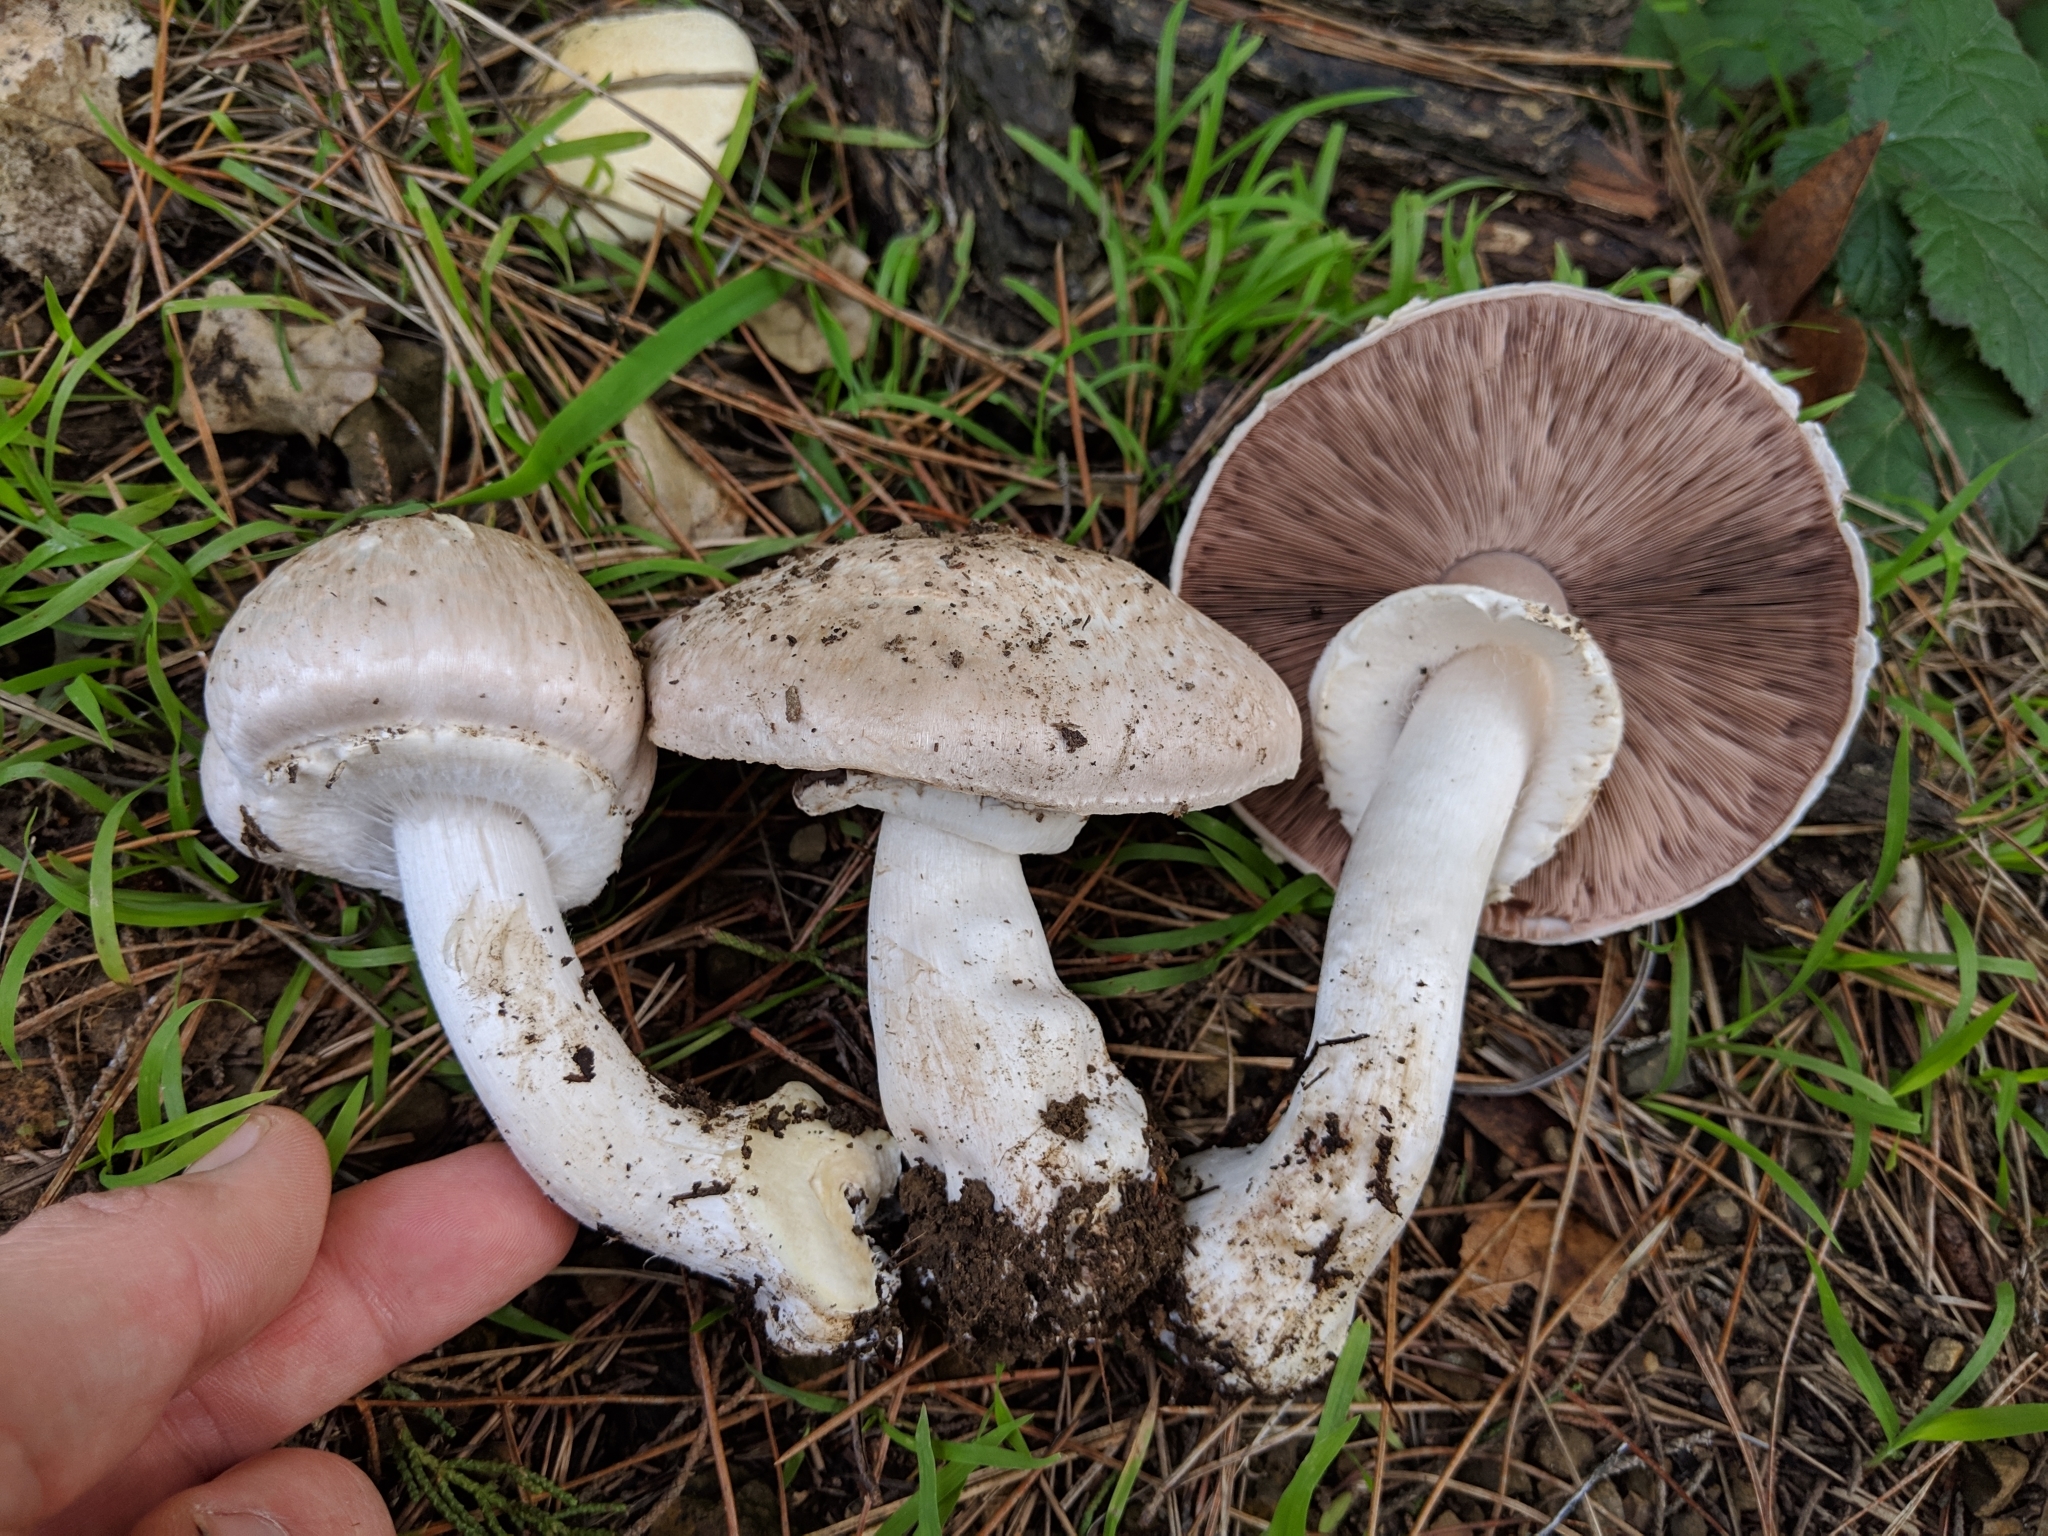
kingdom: Fungi
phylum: Basidiomycota
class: Agaricomycetes
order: Agaricales
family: Agaricaceae
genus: Agaricus
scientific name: Agaricus xanthodermus
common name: Yellow stainer
